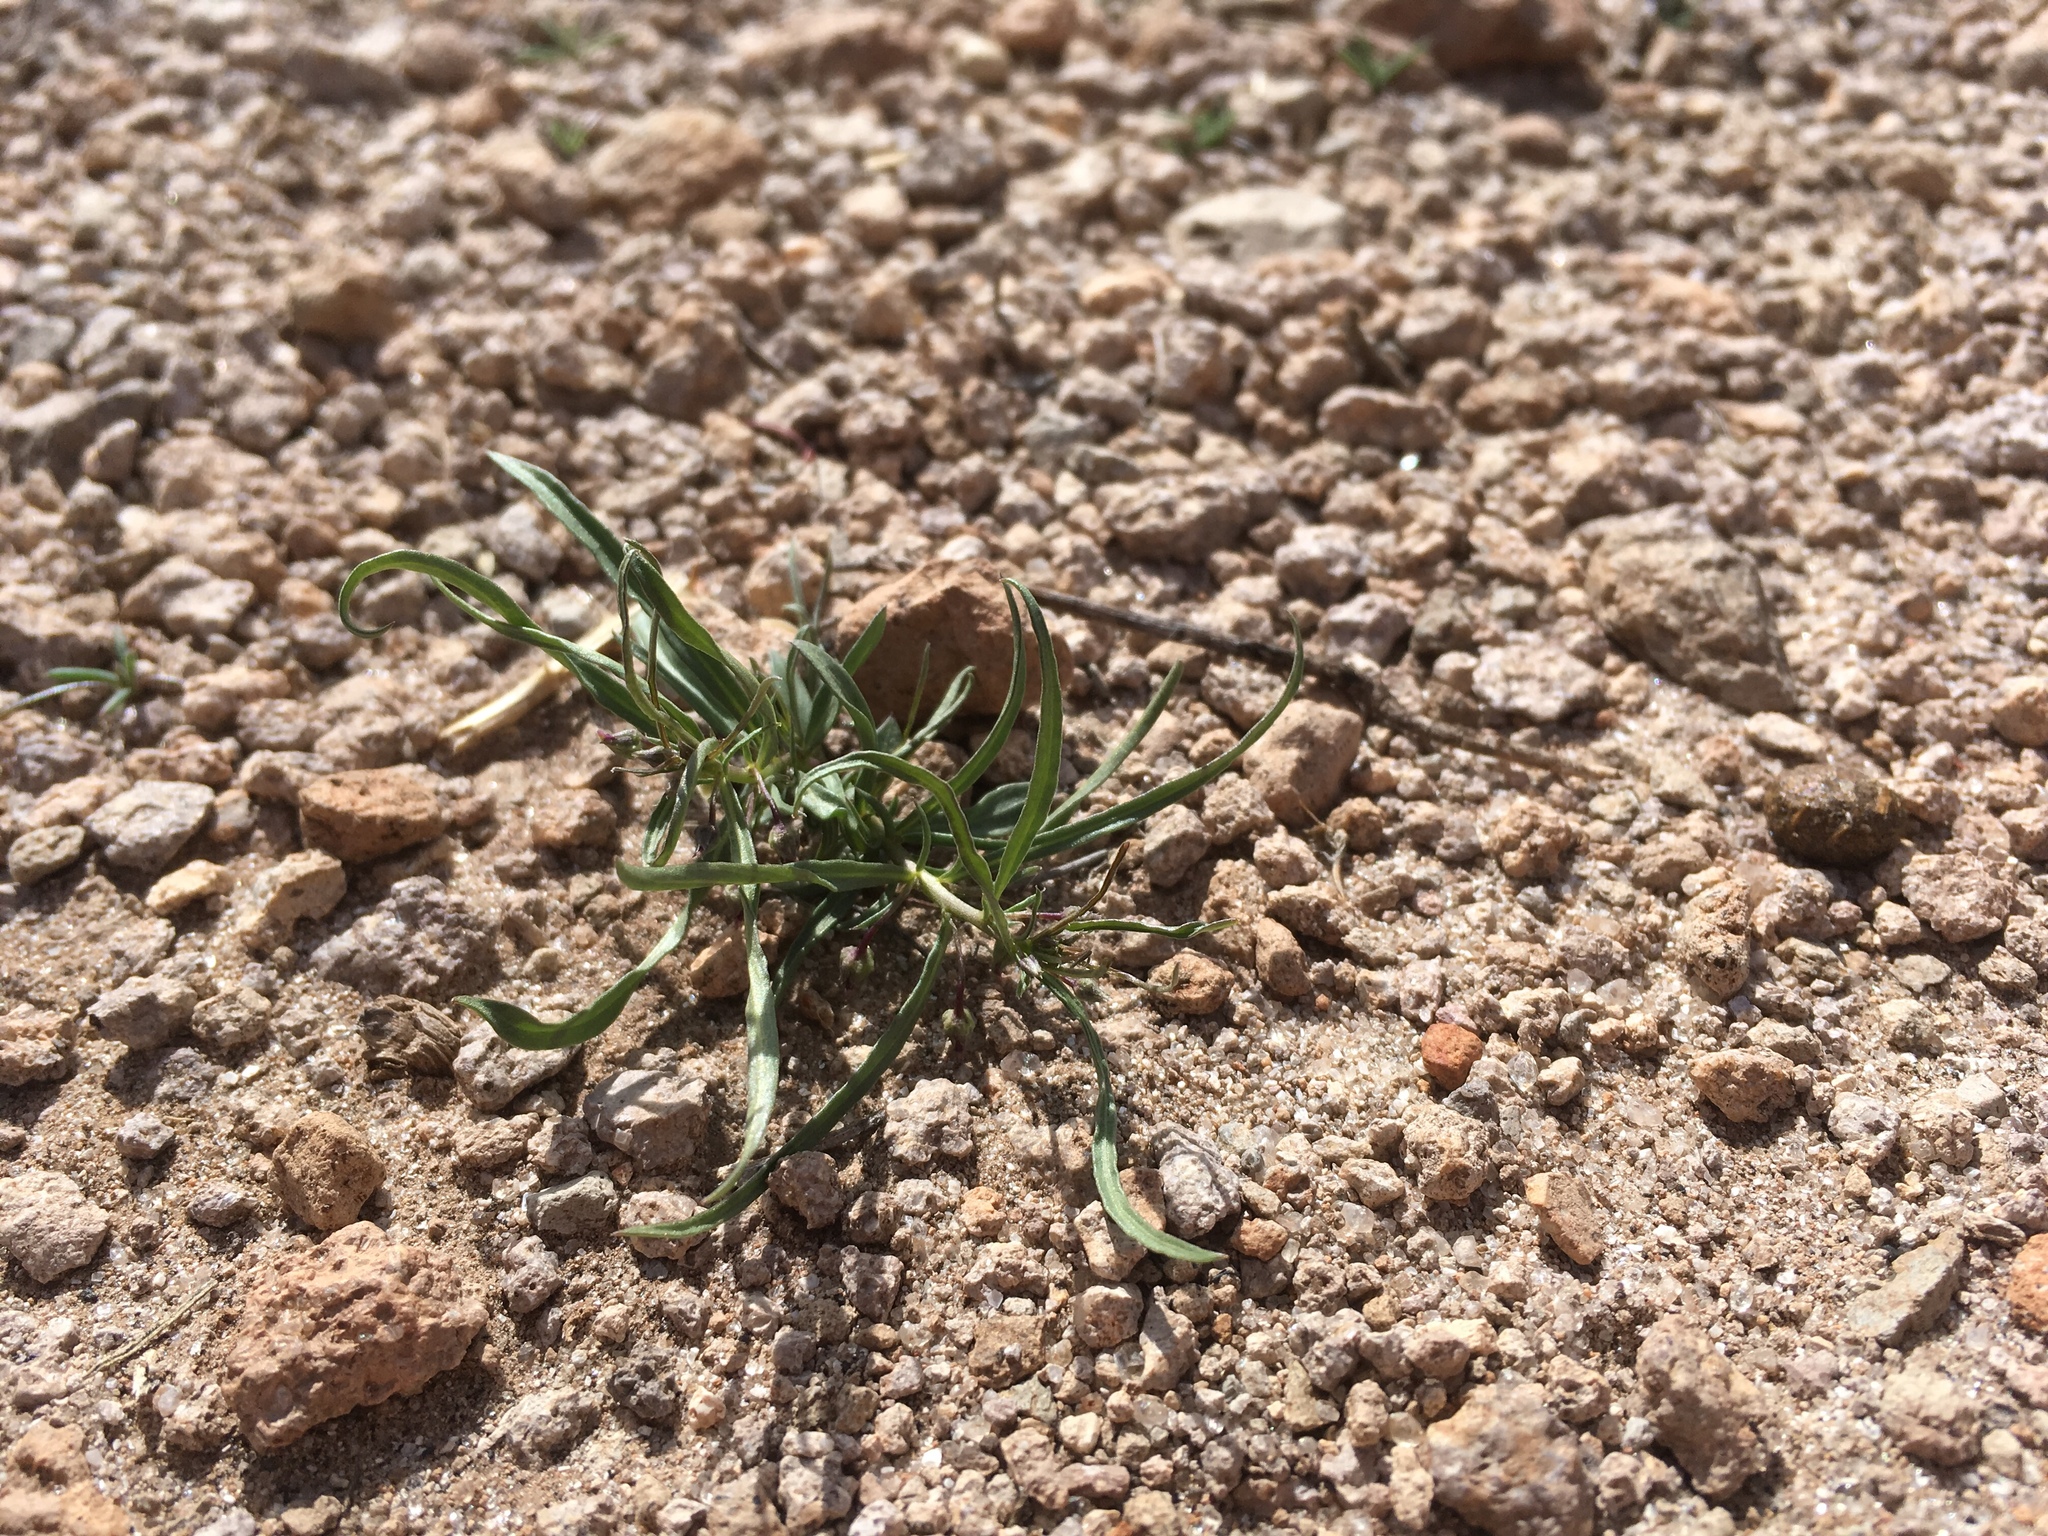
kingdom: Plantae
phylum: Tracheophyta
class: Magnoliopsida
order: Malpighiales
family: Violaceae
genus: Pombalia
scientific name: Pombalia verticillata
